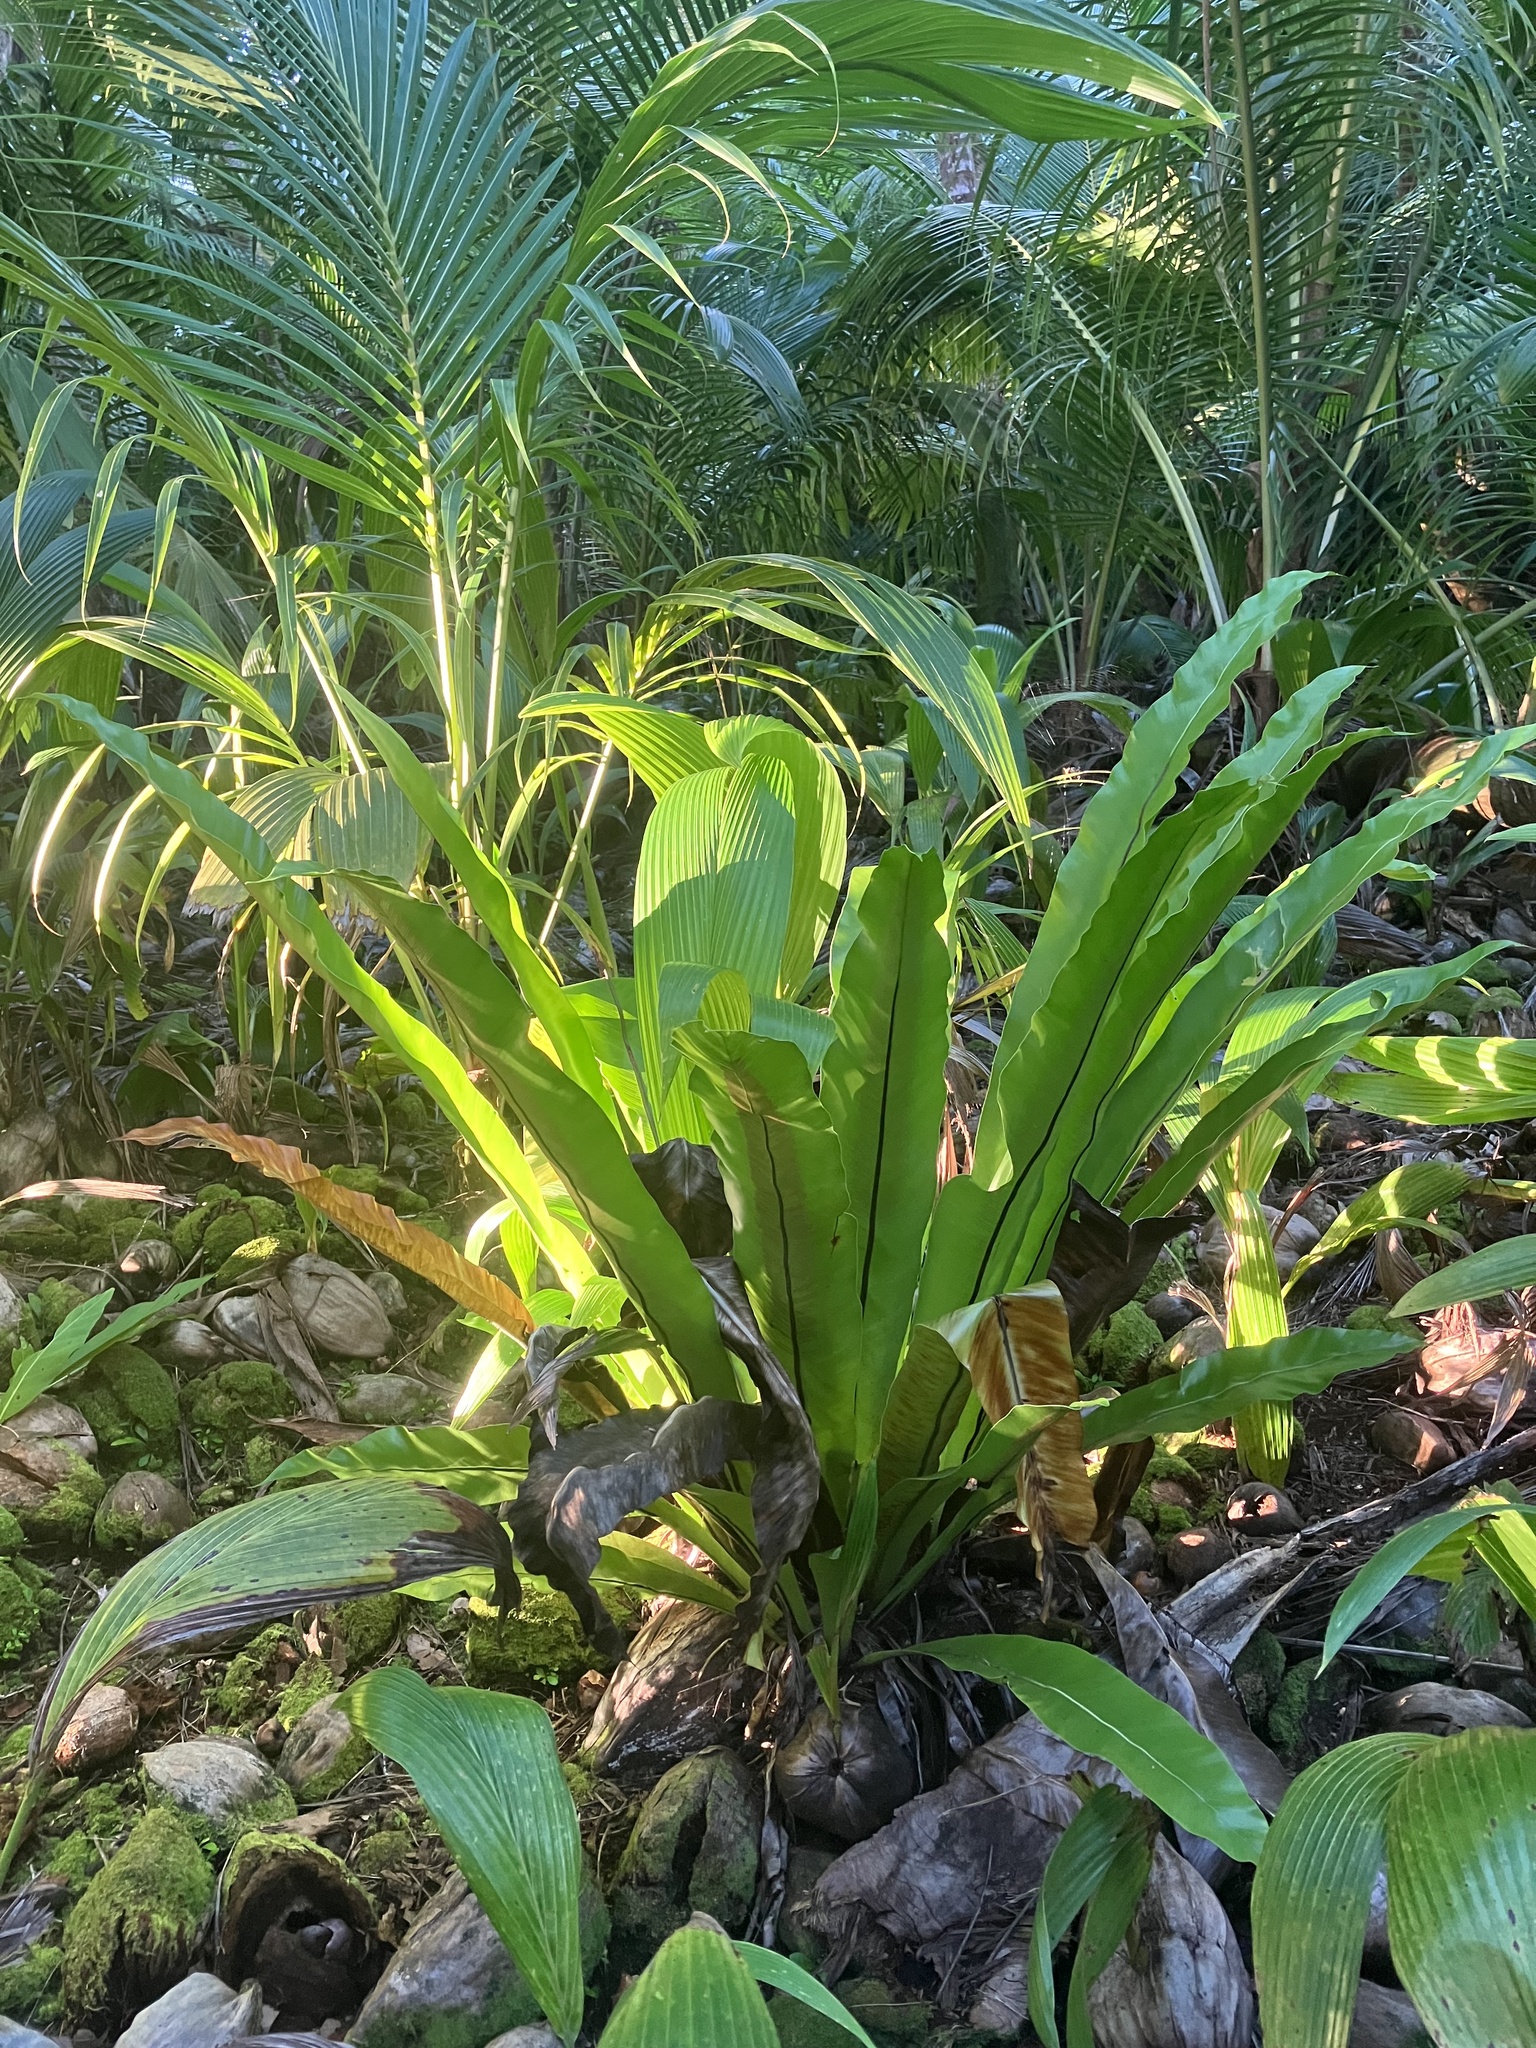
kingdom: Plantae
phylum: Tracheophyta
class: Polypodiopsida
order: Polypodiales
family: Aspleniaceae
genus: Asplenium
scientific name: Asplenium nidus
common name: Bird's-nest fern
